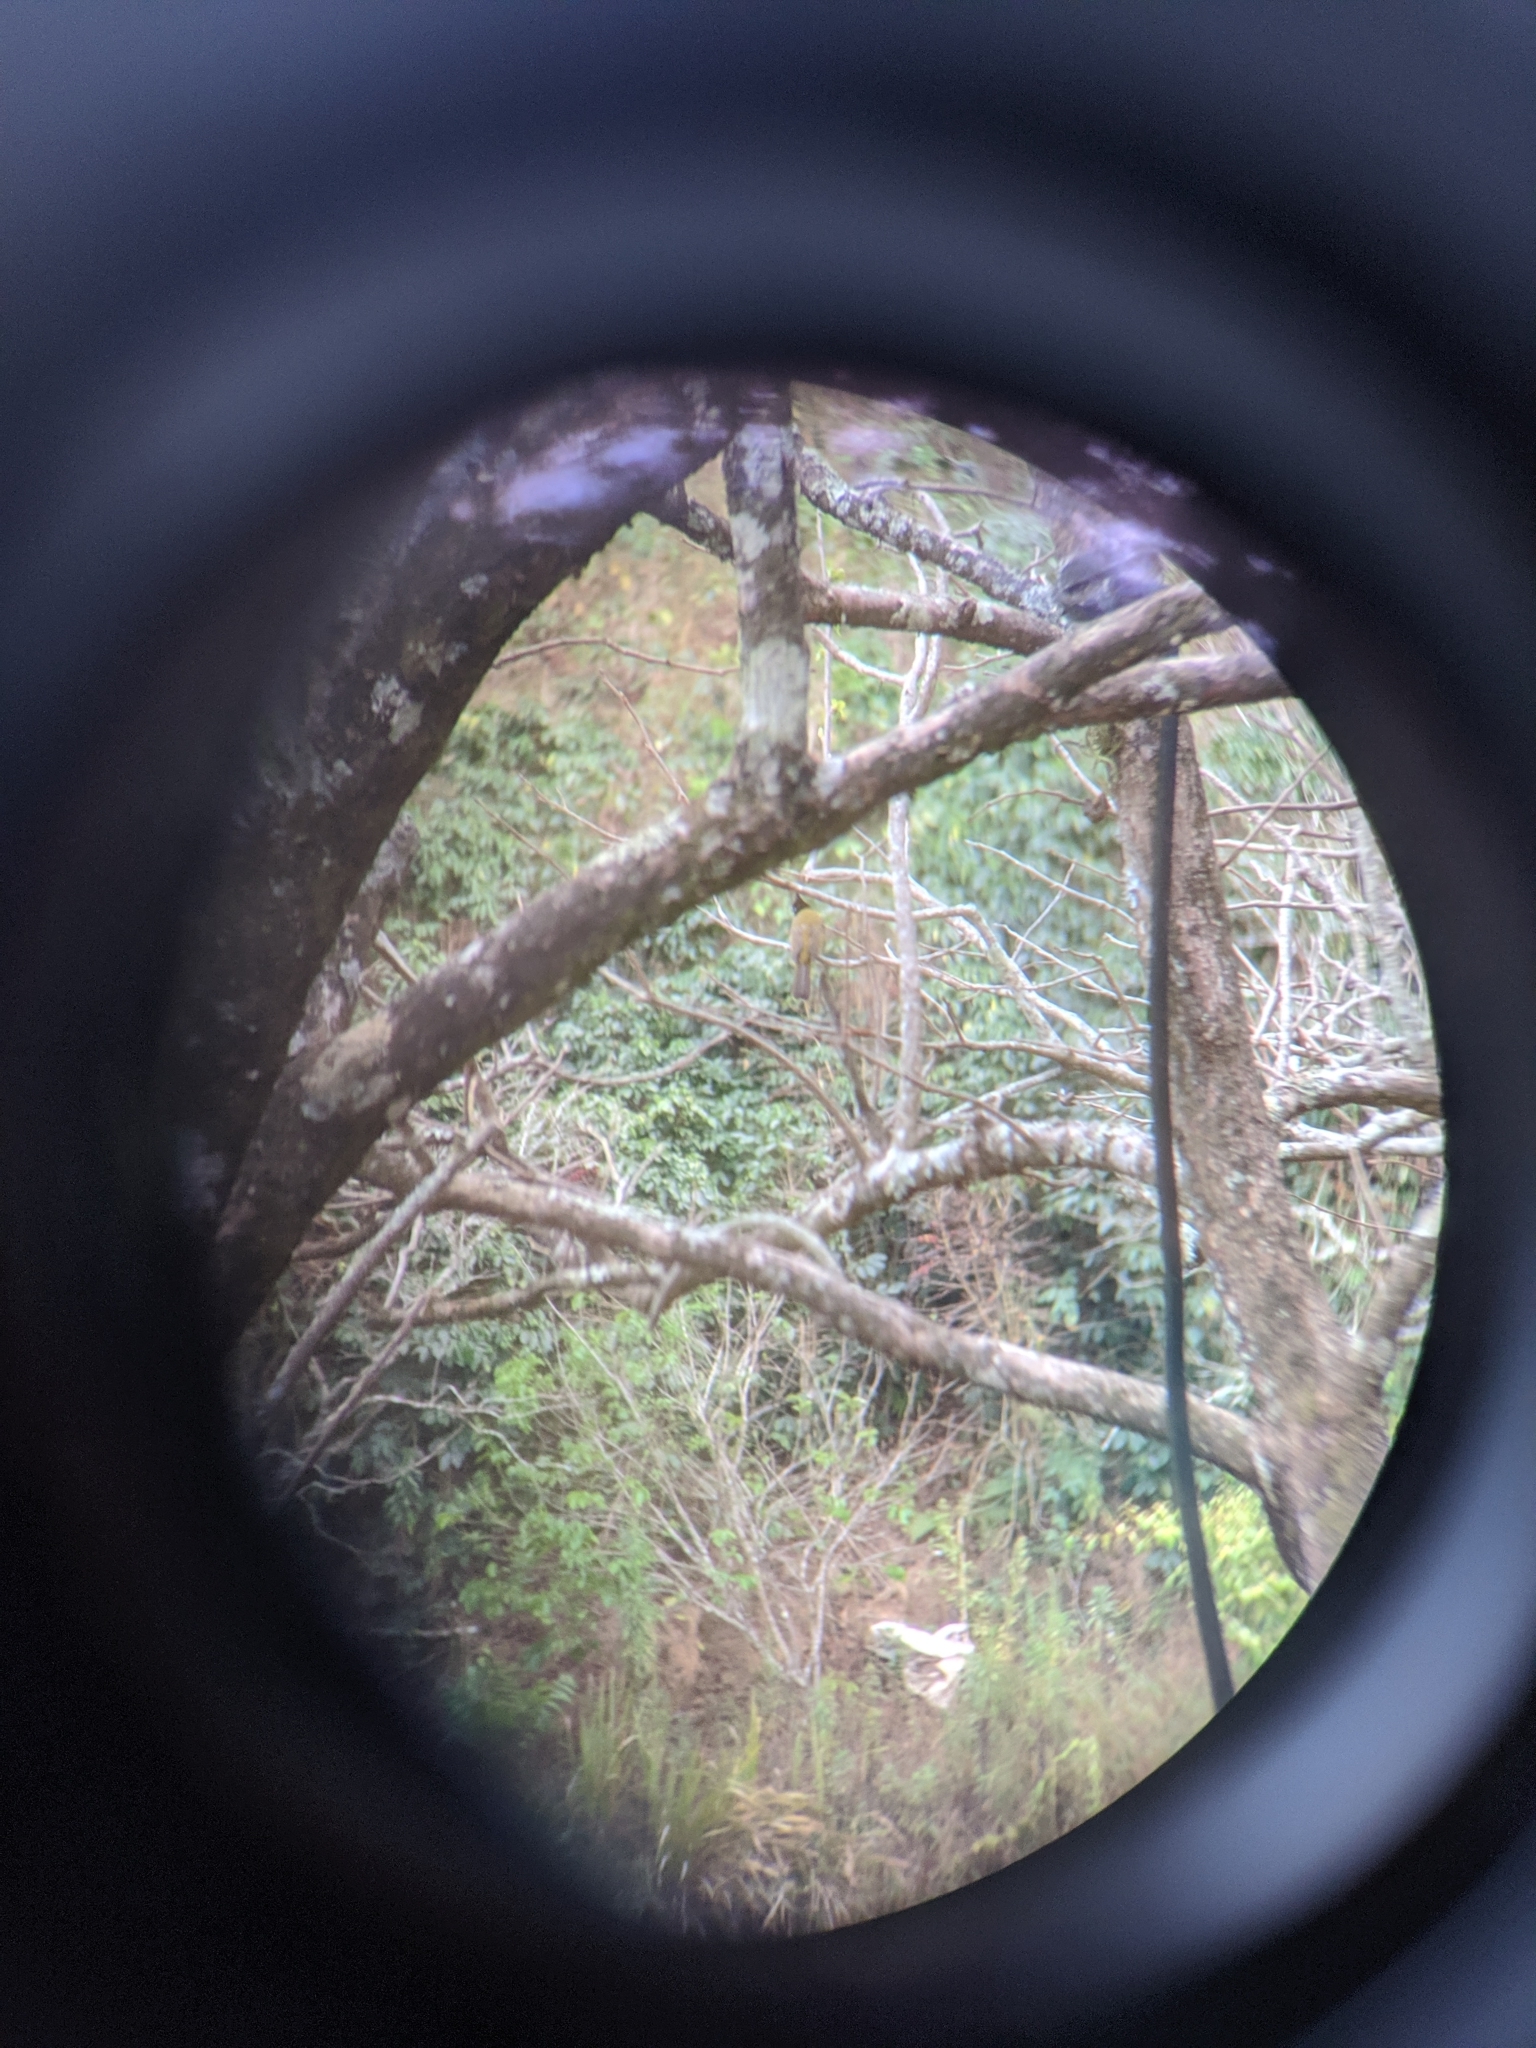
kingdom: Animalia
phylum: Chordata
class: Aves
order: Passeriformes
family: Pycnonotidae
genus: Pycnonotus
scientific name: Pycnonotus flaviventris
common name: Black-crested bulbul
